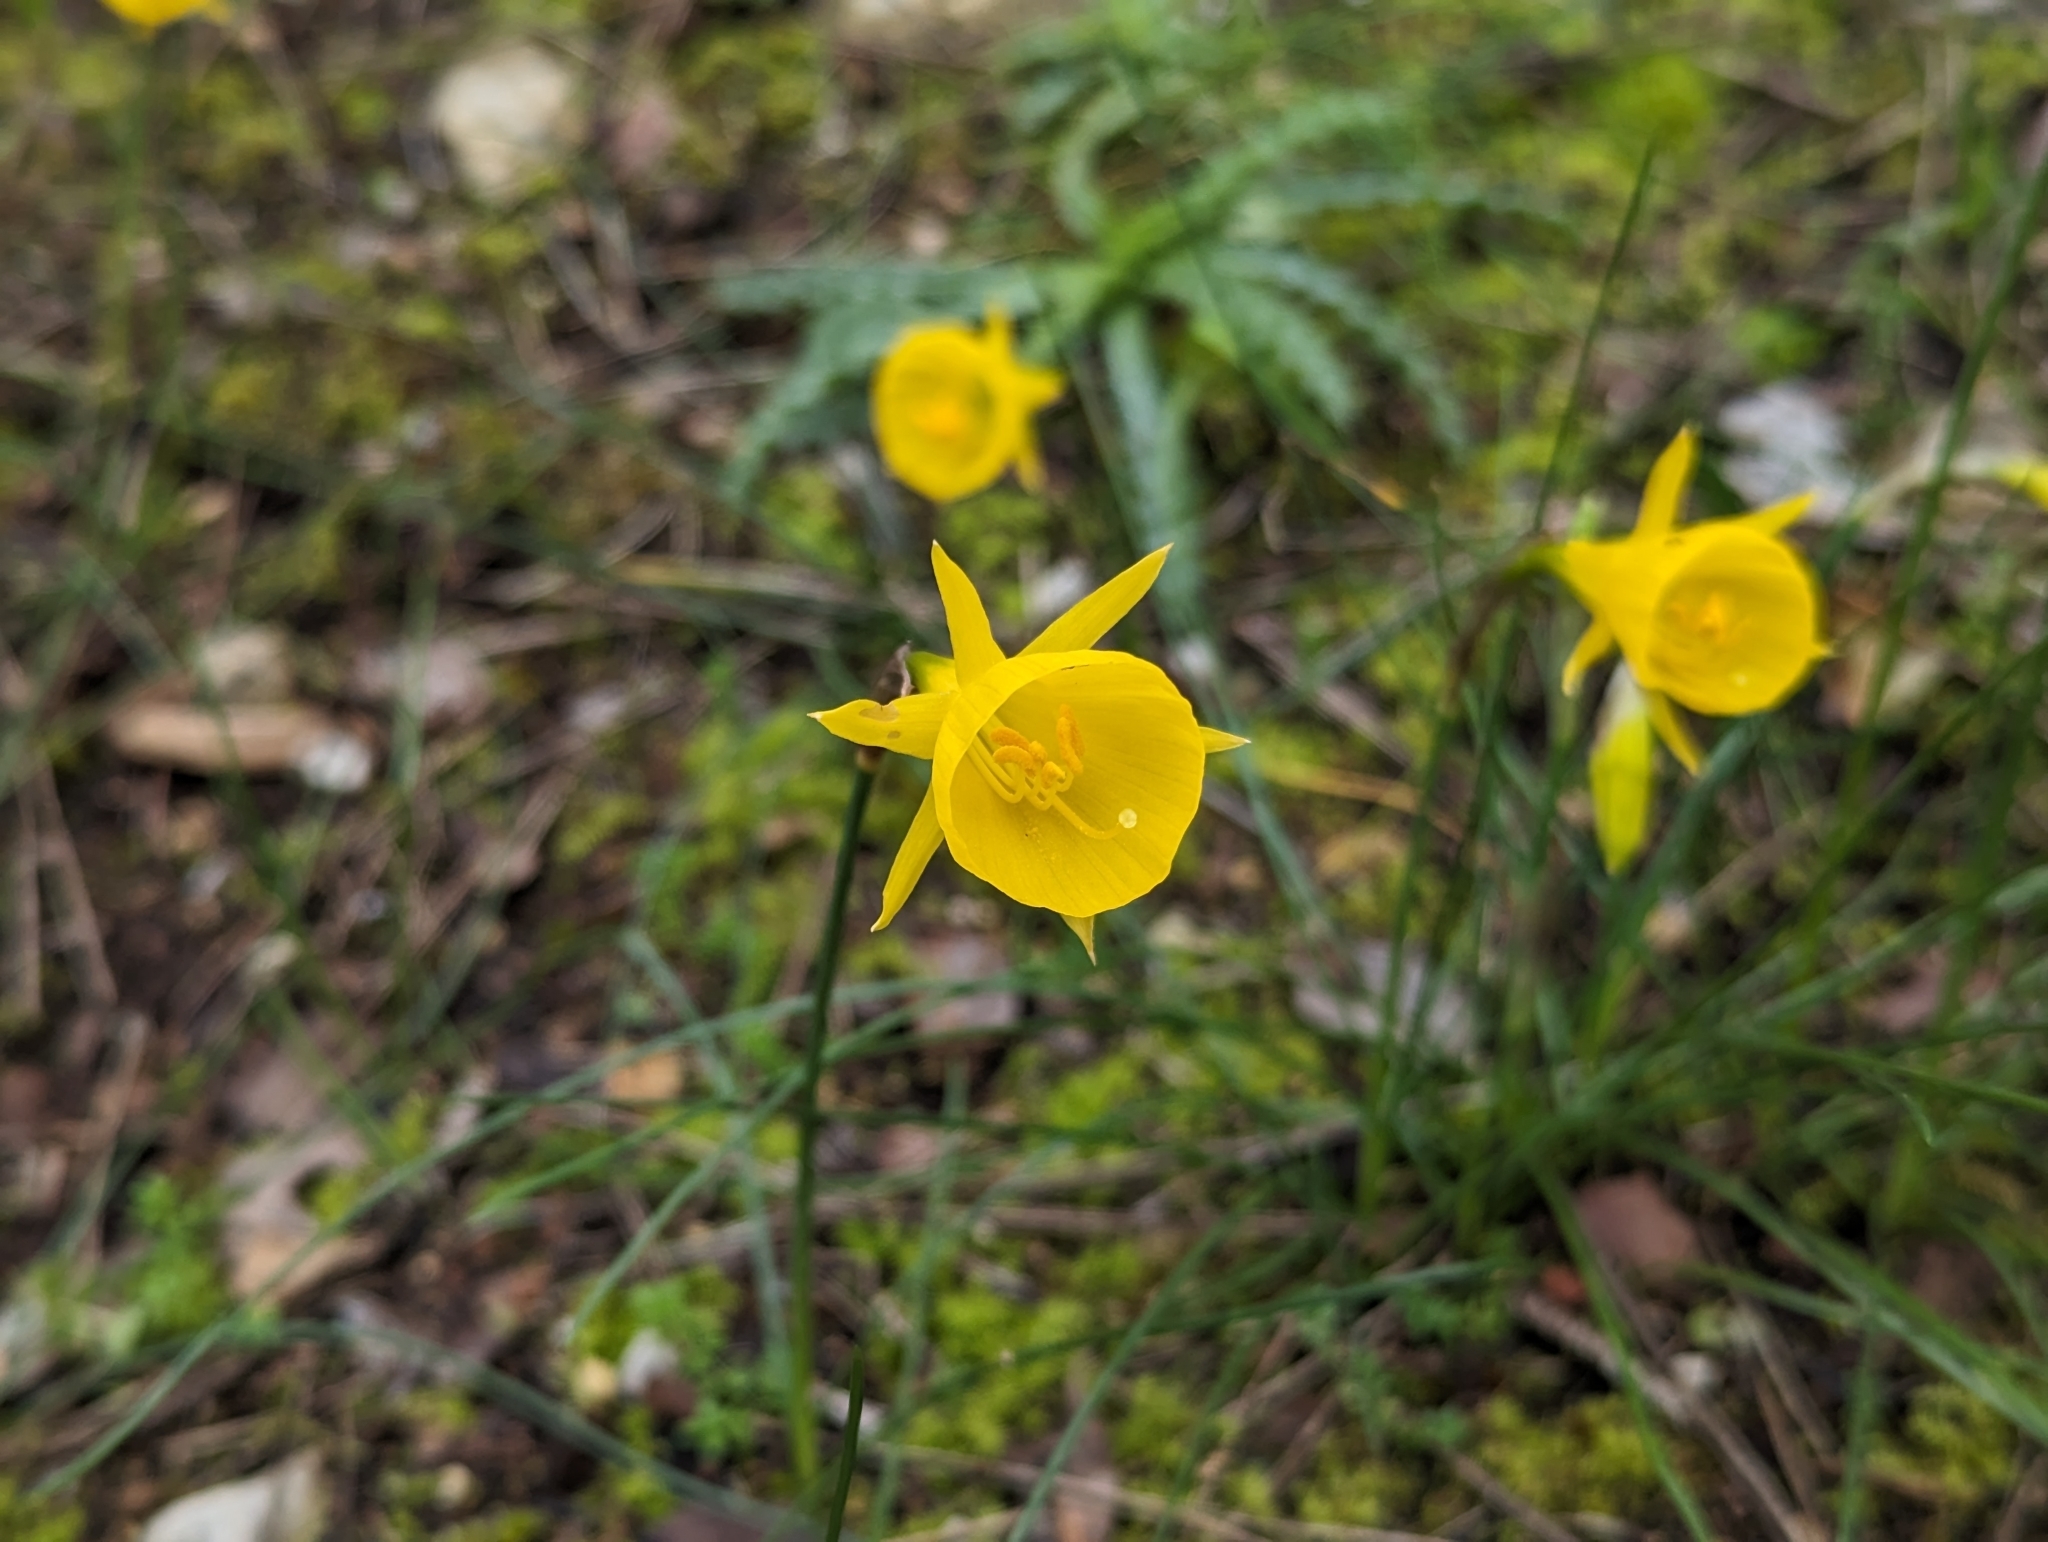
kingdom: Plantae
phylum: Tracheophyta
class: Liliopsida
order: Asparagales
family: Amaryllidaceae
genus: Narcissus
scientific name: Narcissus obesus
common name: Hoop petticoat daffodil
